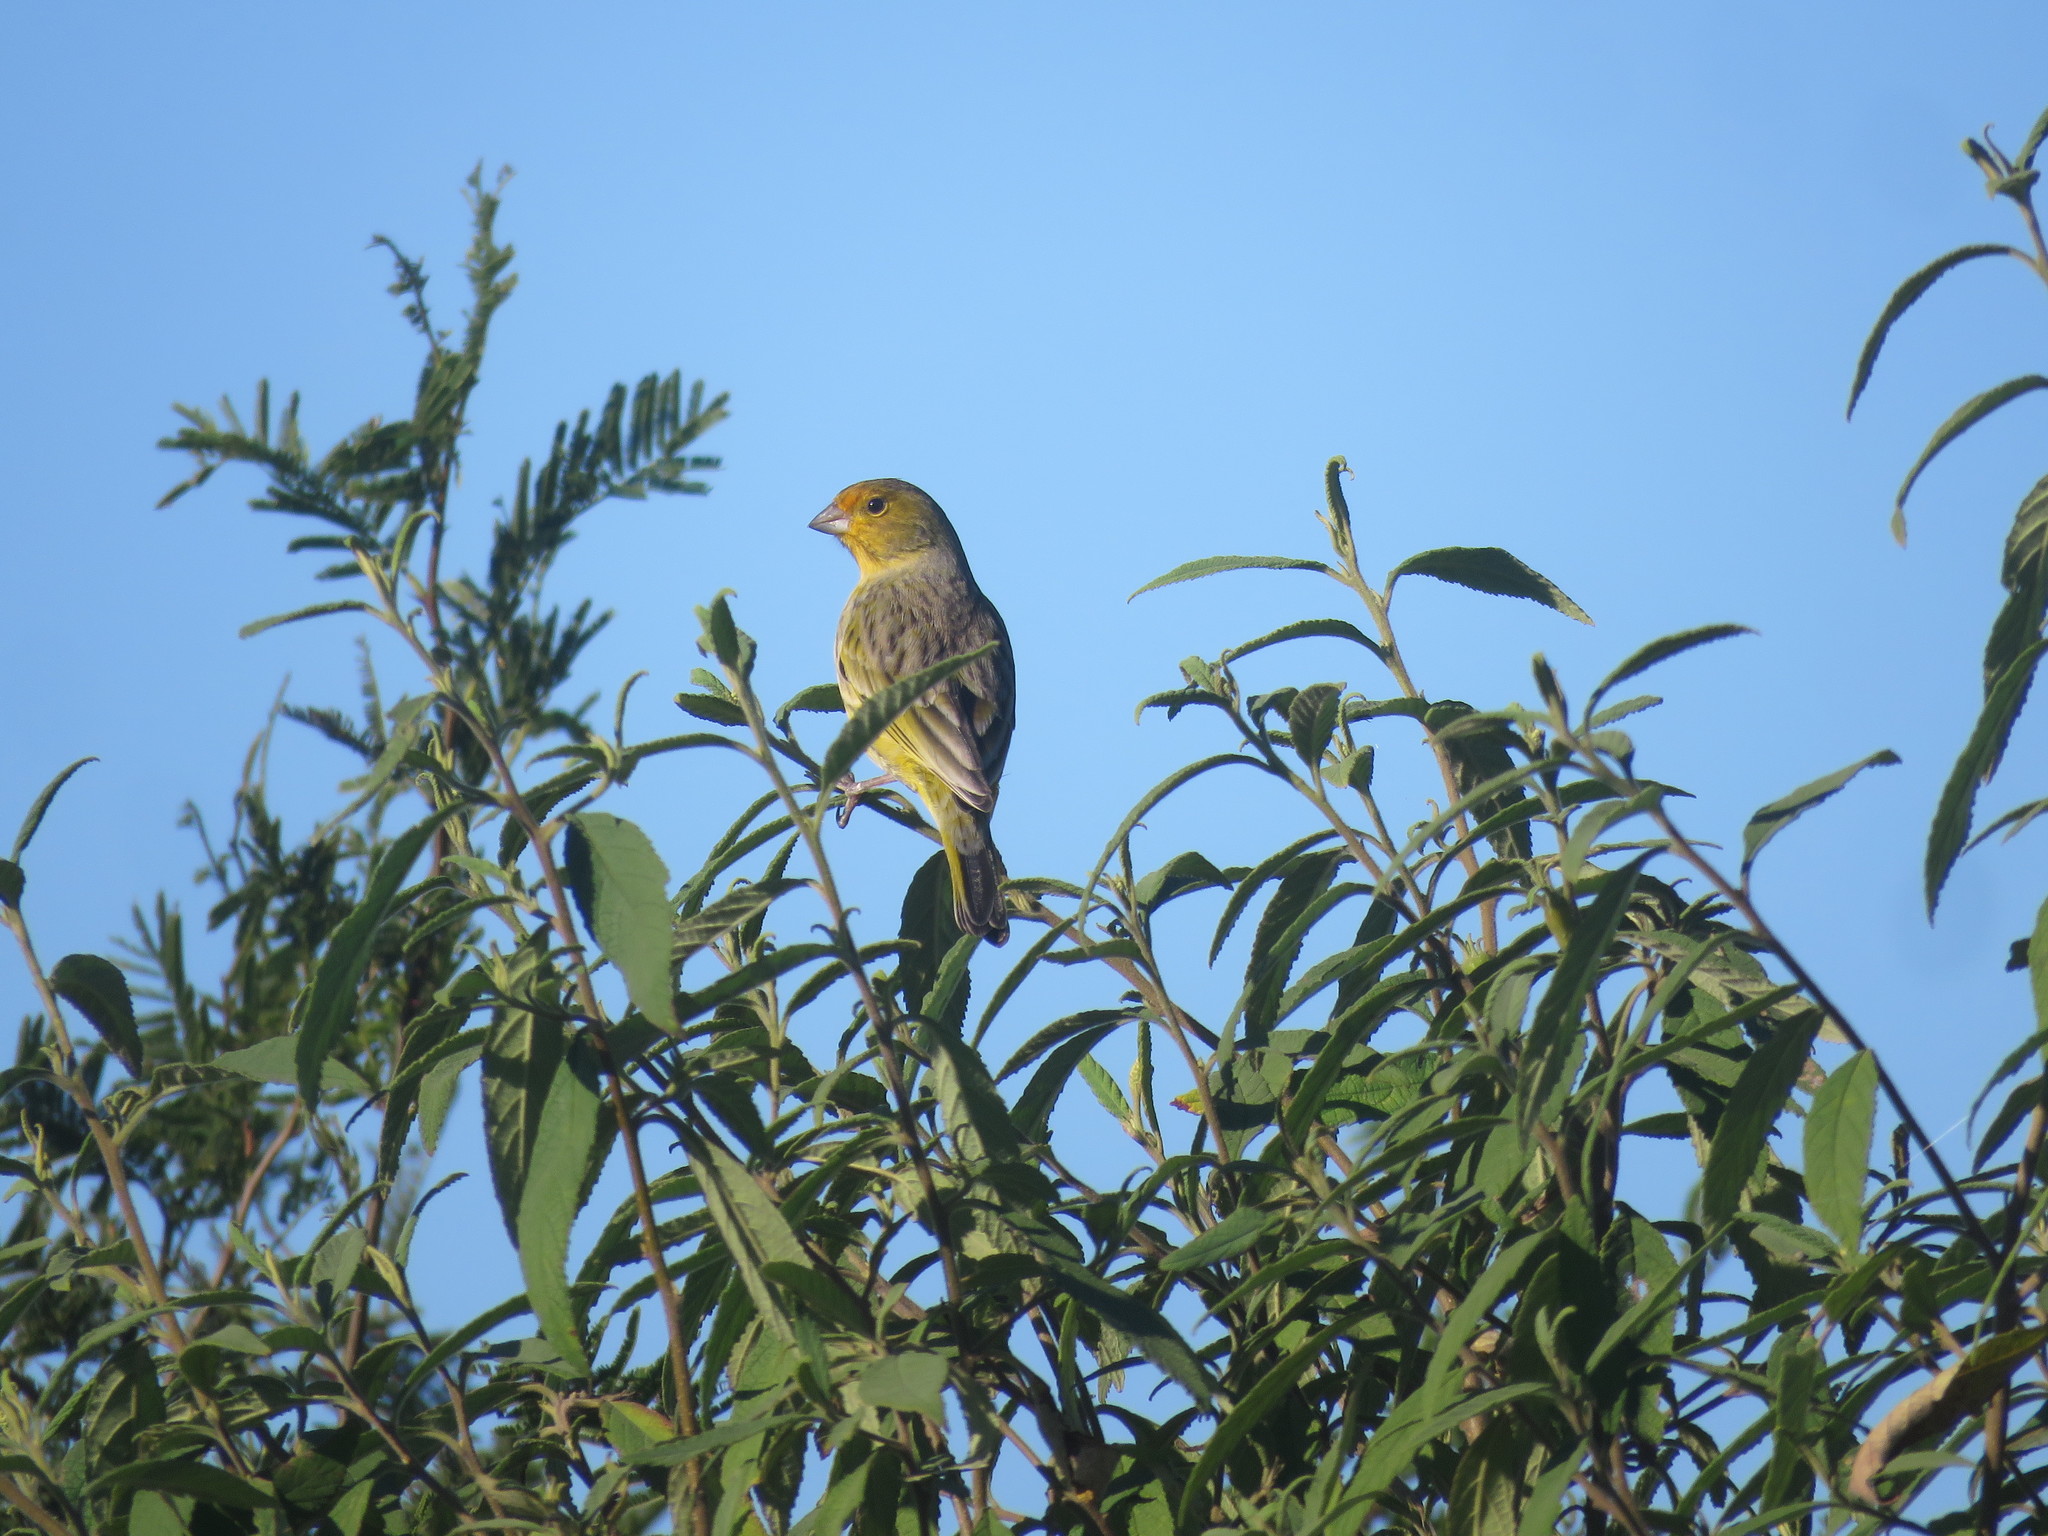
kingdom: Animalia
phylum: Chordata
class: Aves
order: Passeriformes
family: Thraupidae
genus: Sicalis
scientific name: Sicalis flaveola
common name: Saffron finch
